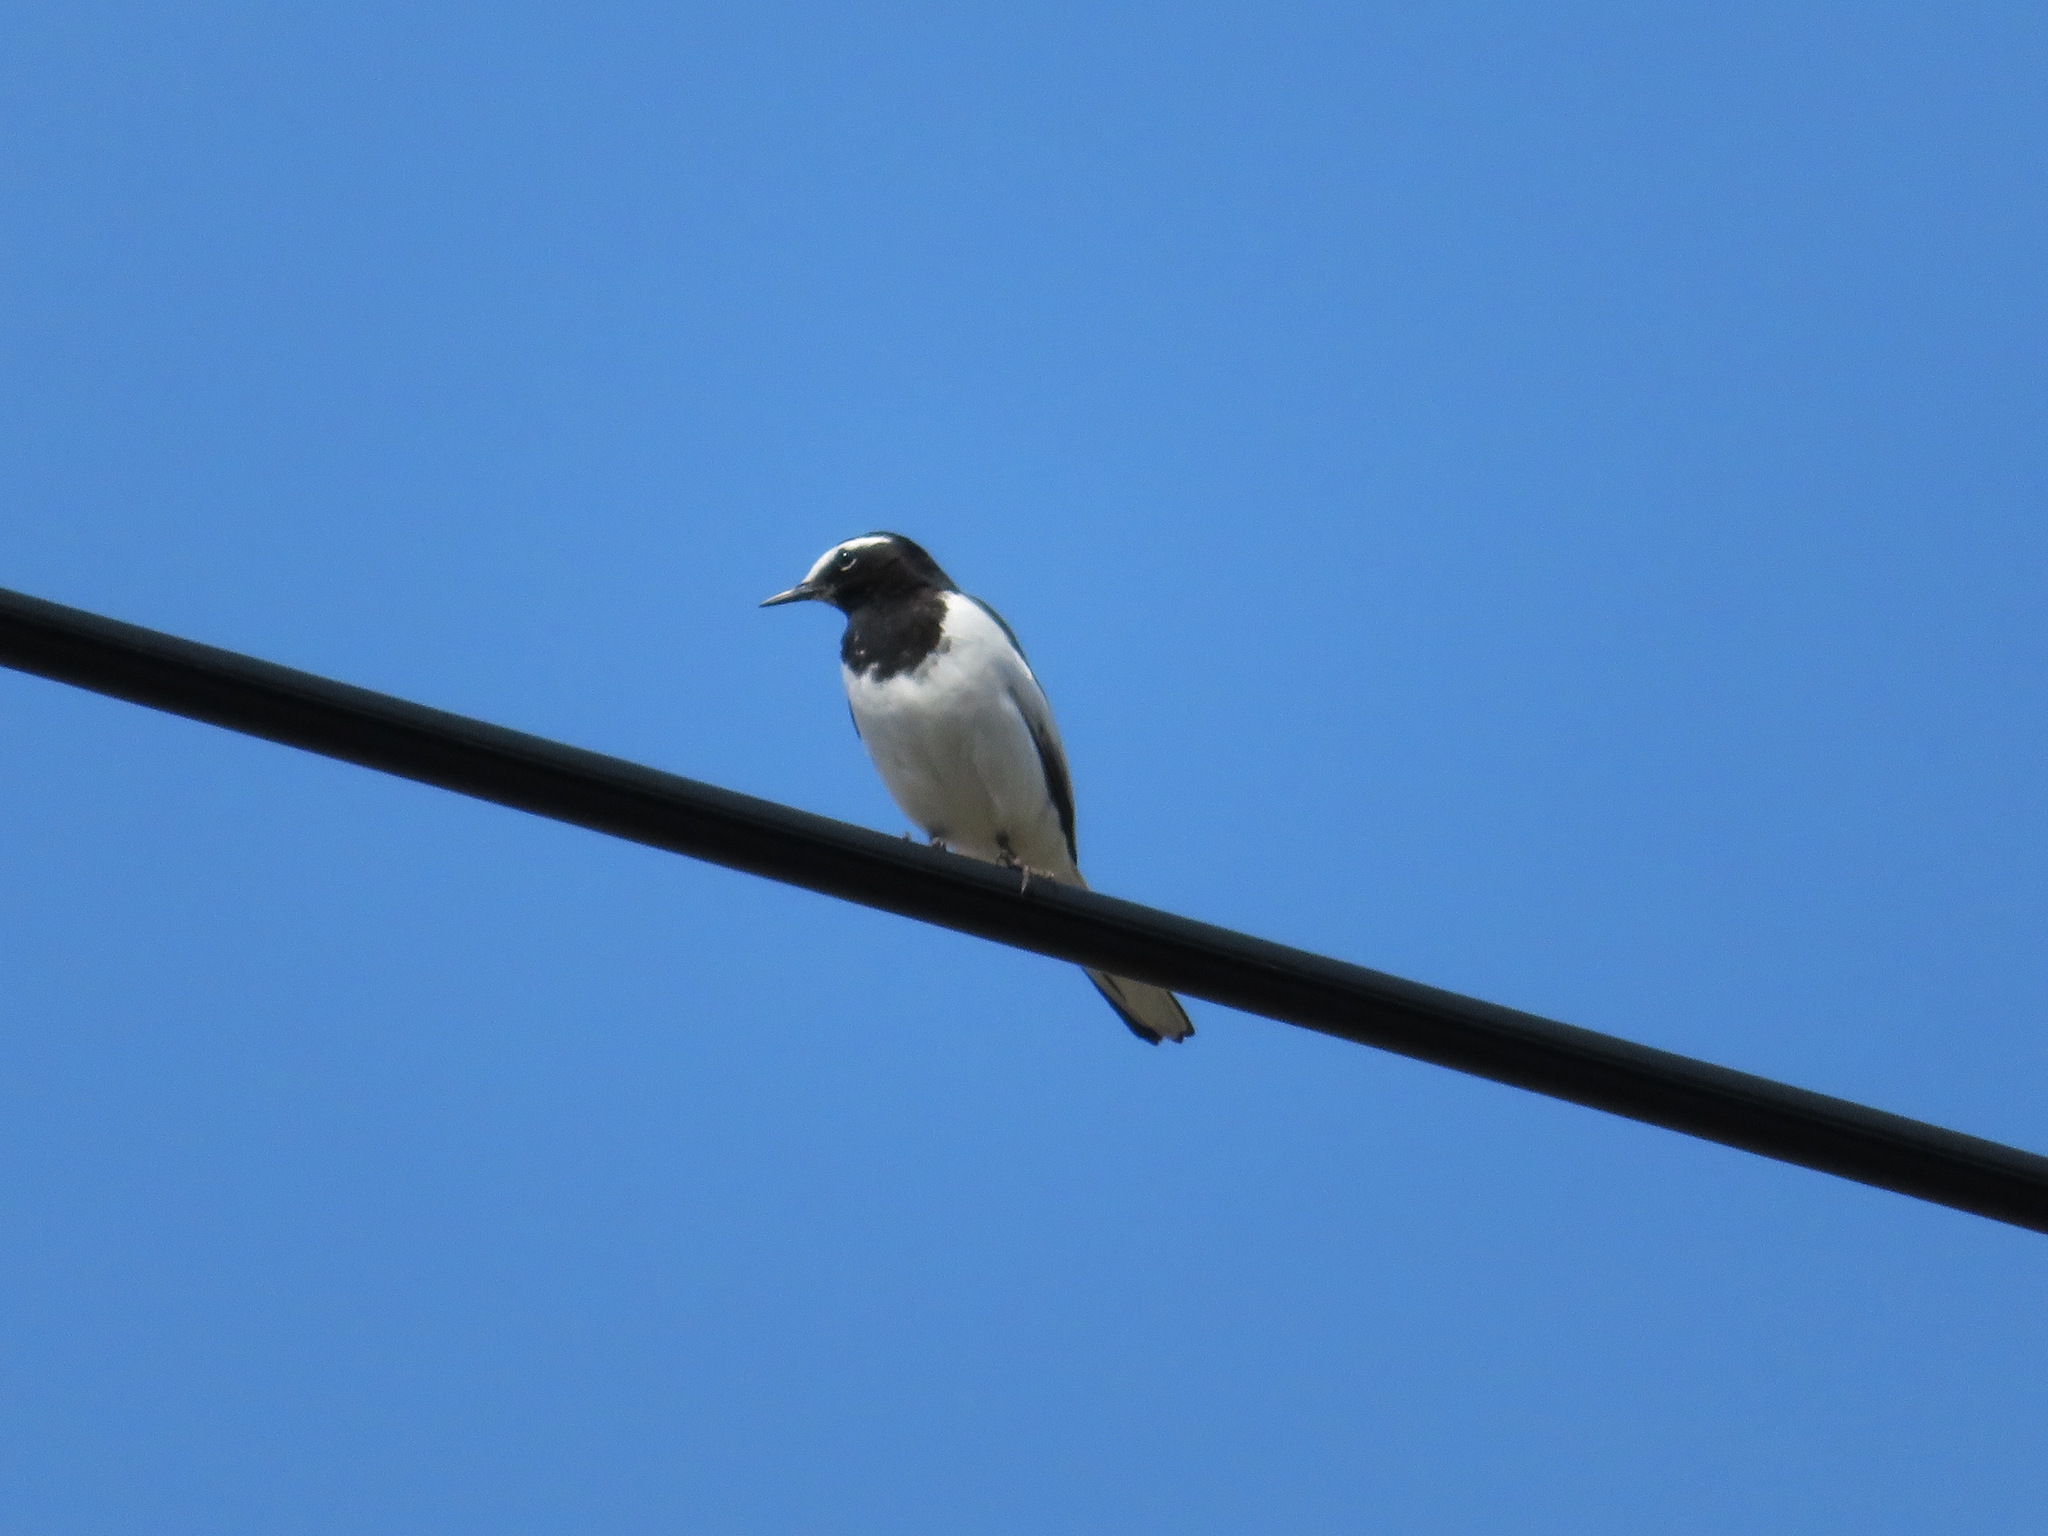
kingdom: Animalia
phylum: Chordata
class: Aves
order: Passeriformes
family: Motacillidae
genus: Motacilla
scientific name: Motacilla grandis
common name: Japanese wagtail
